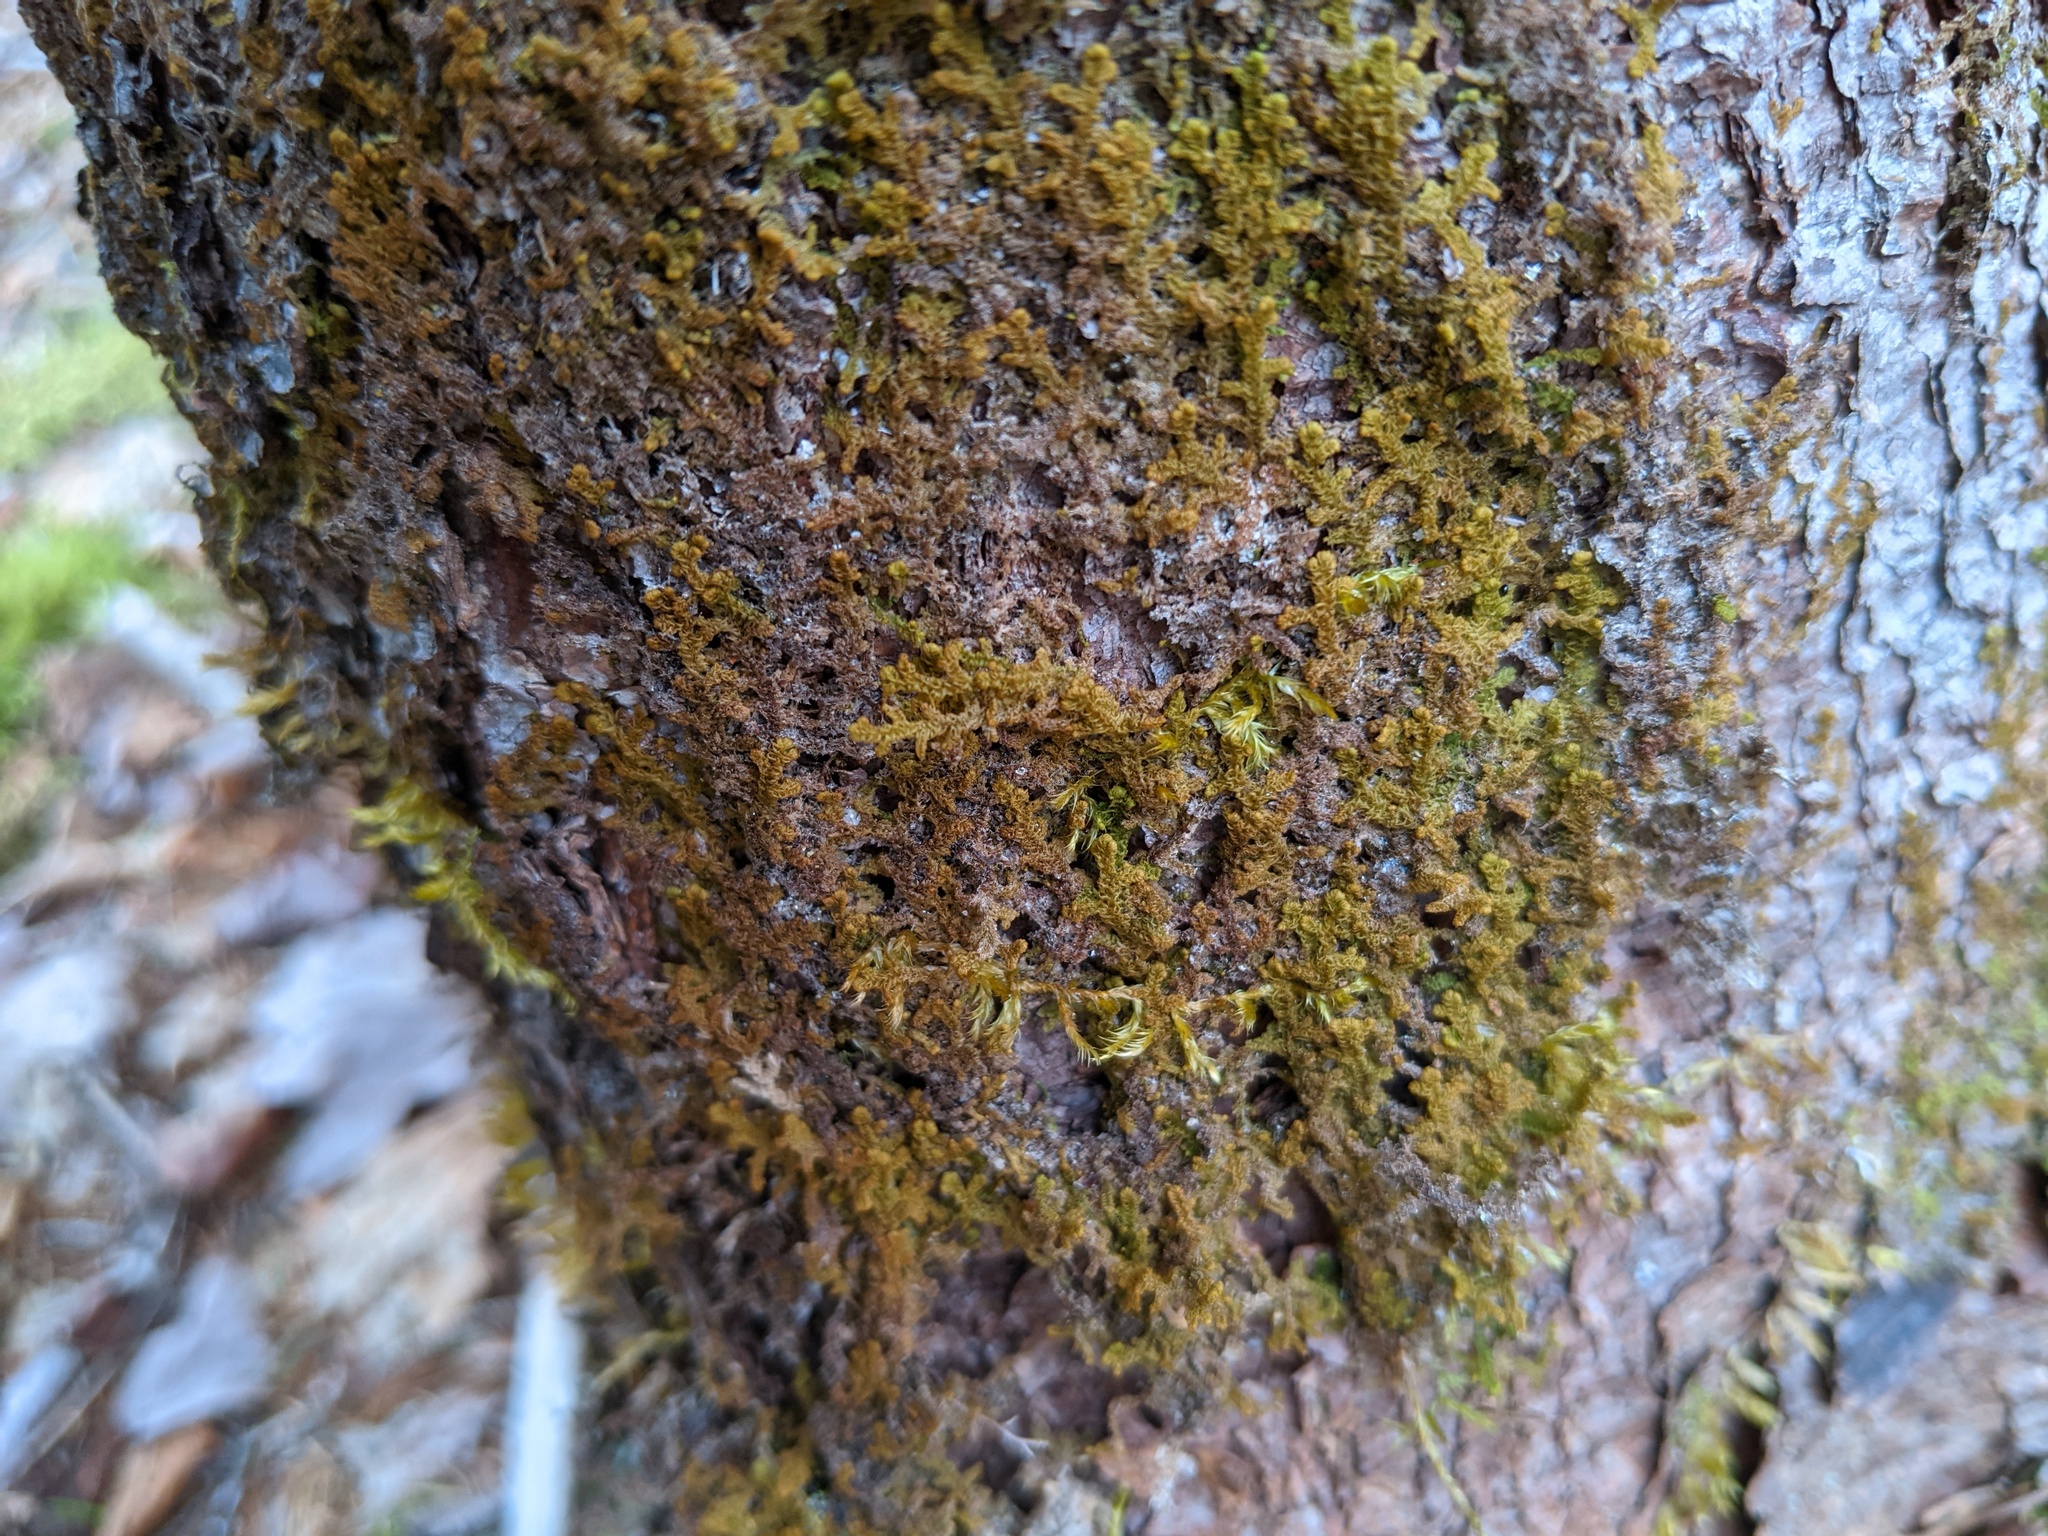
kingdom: Plantae
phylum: Marchantiophyta
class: Jungermanniopsida
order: Ptilidiales
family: Ptilidiaceae
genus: Ptilidium
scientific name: Ptilidium pulcherrimum
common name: Tree fringewort
